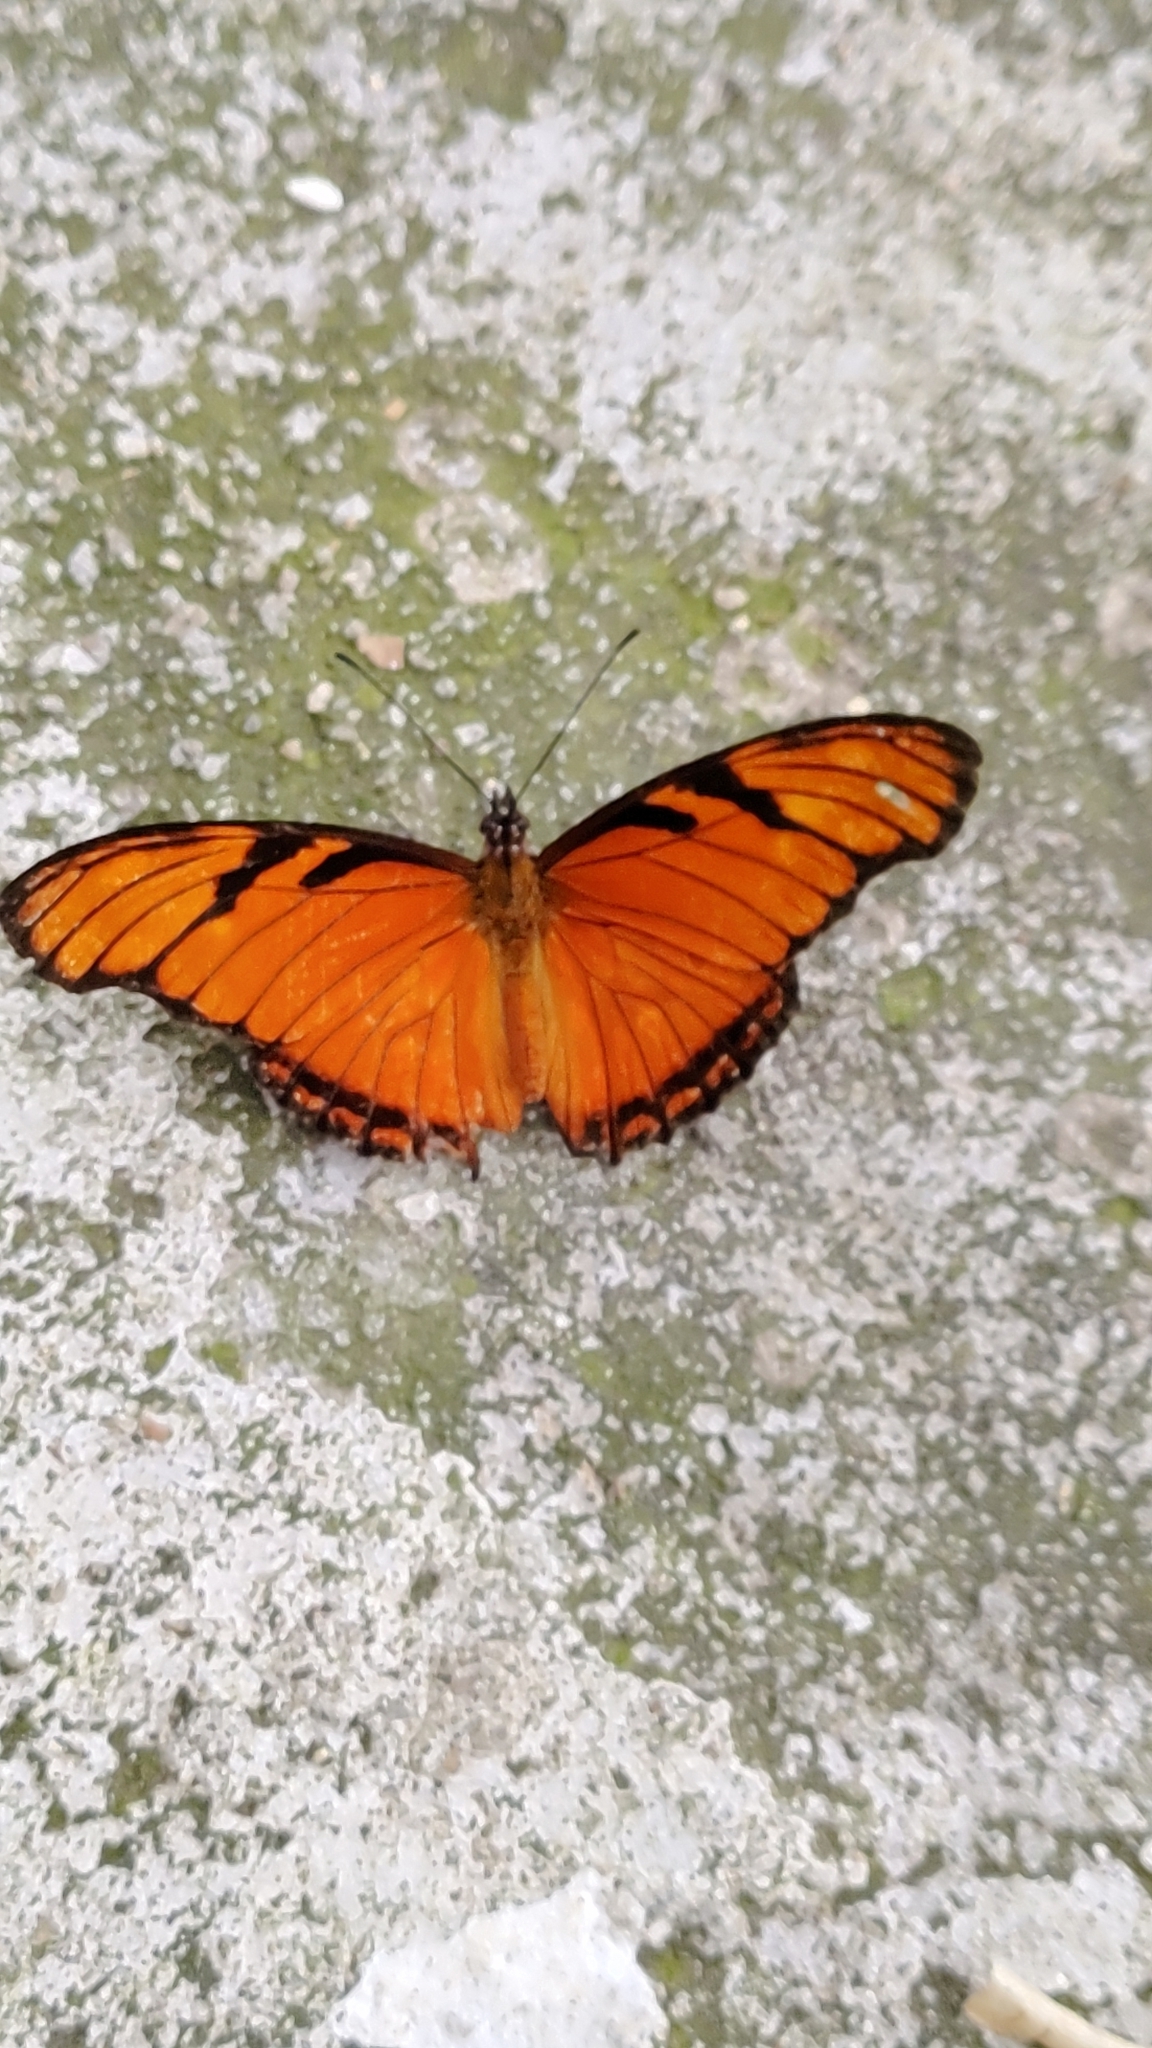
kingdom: Animalia
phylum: Arthropoda
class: Insecta
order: Lepidoptera
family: Nymphalidae
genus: Dione
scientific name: Dione juno
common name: Juno silverspot
